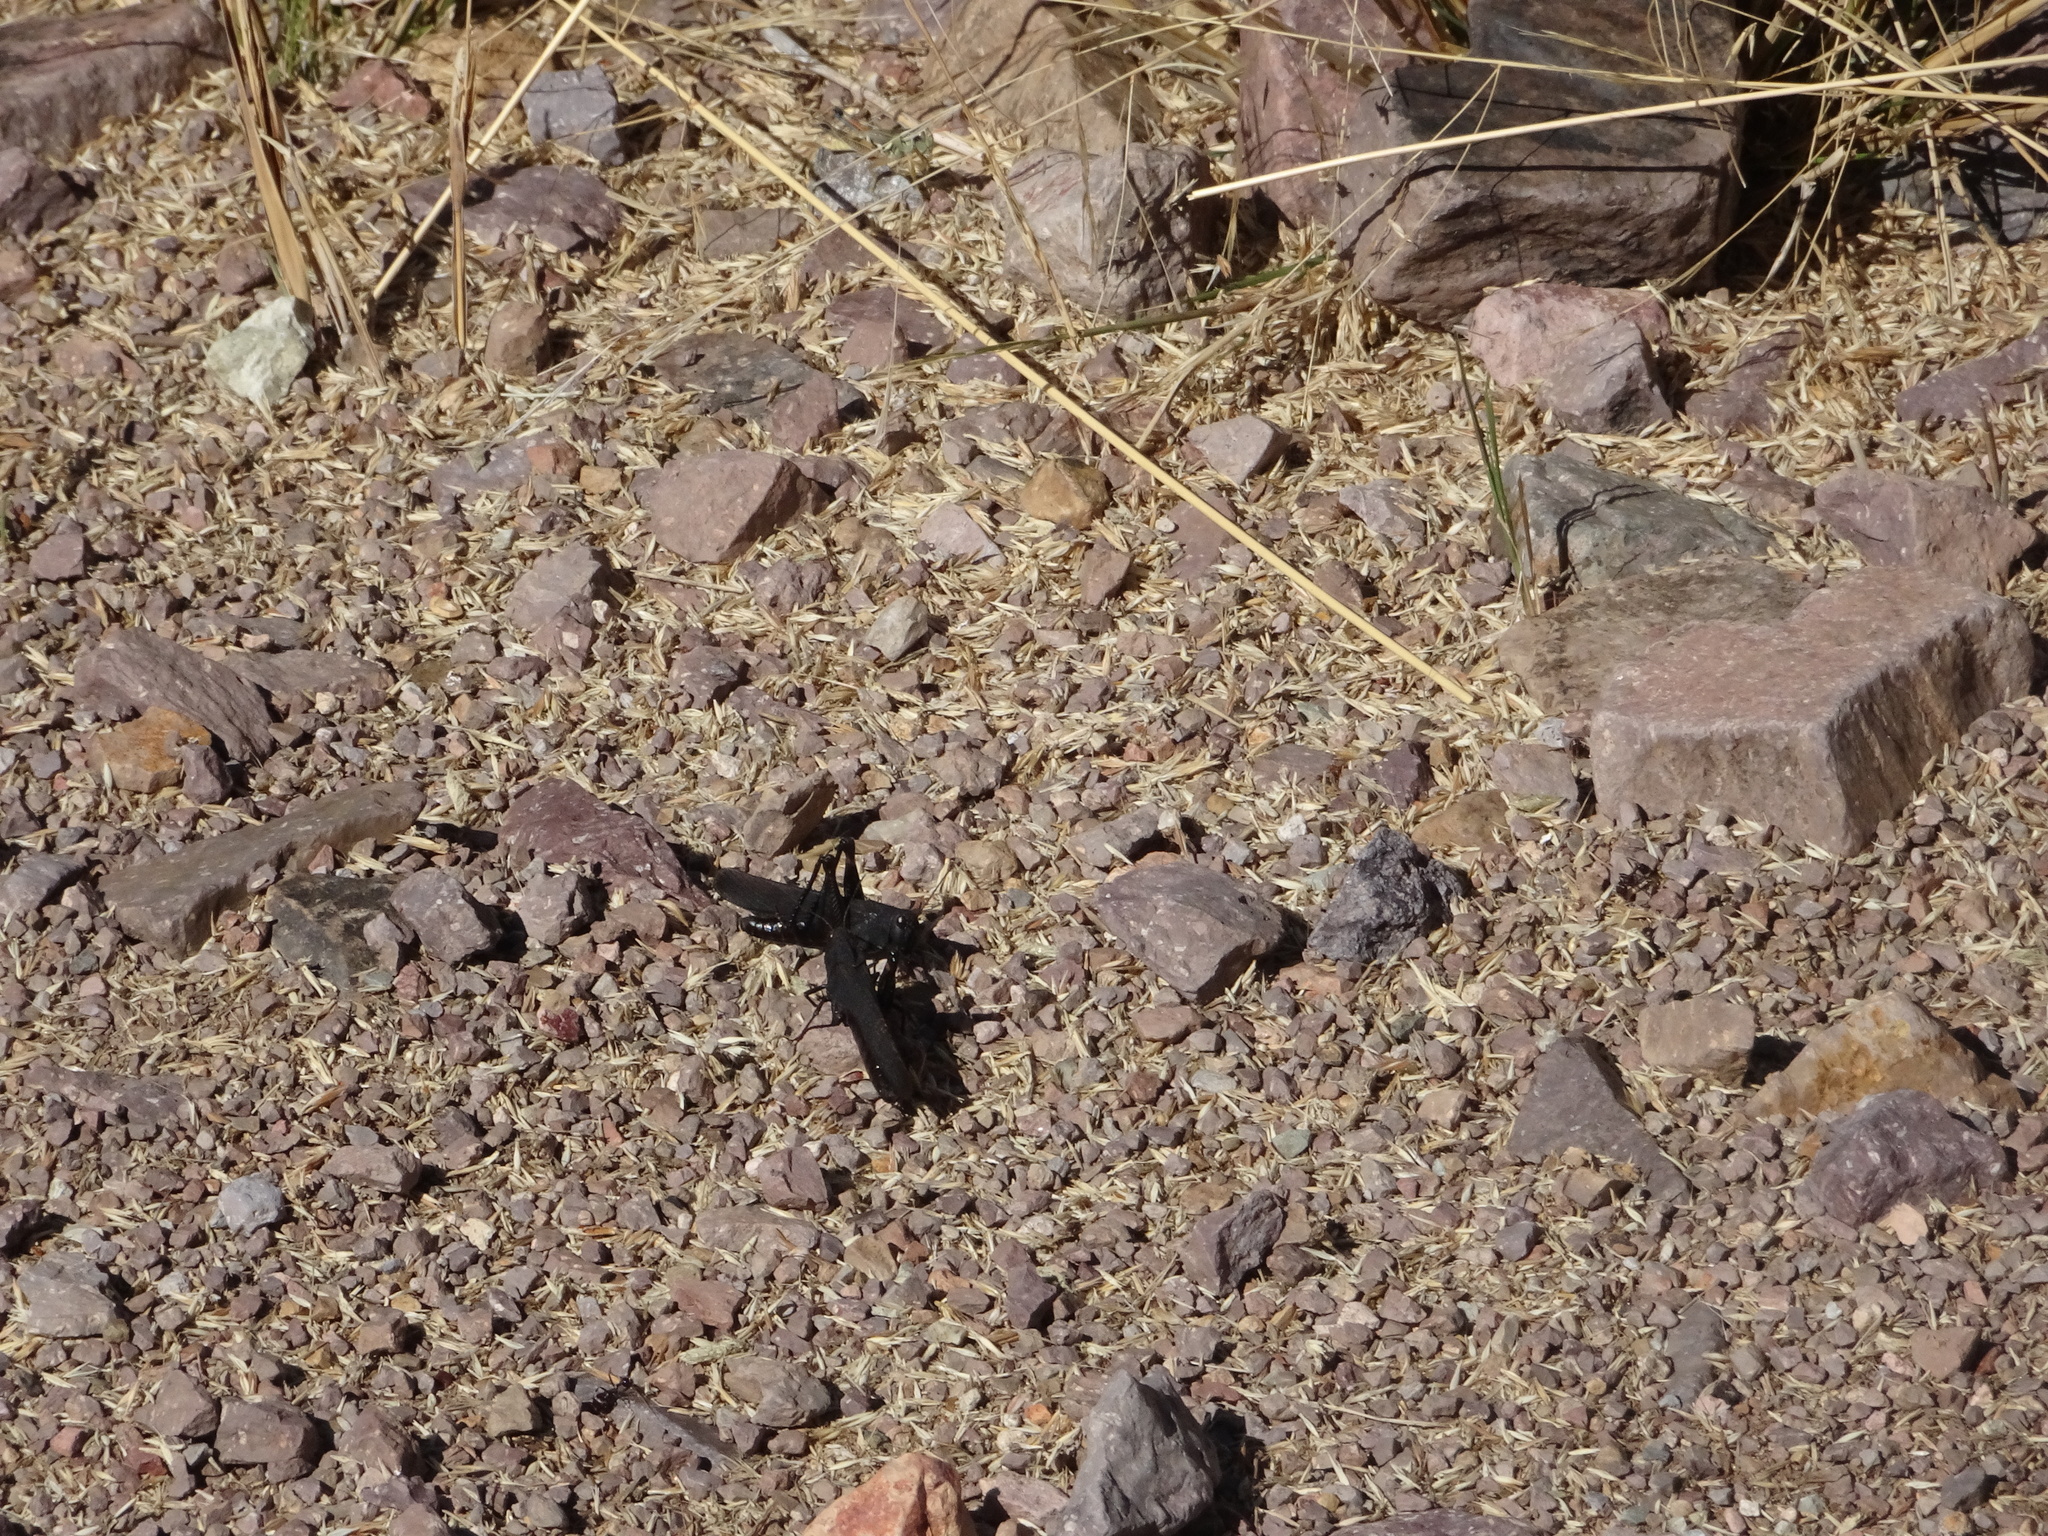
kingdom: Animalia
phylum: Arthropoda
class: Insecta
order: Orthoptera
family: Acrididae
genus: Arphia
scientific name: Arphia pseudo-nietana
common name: Red-winged grasshopper
